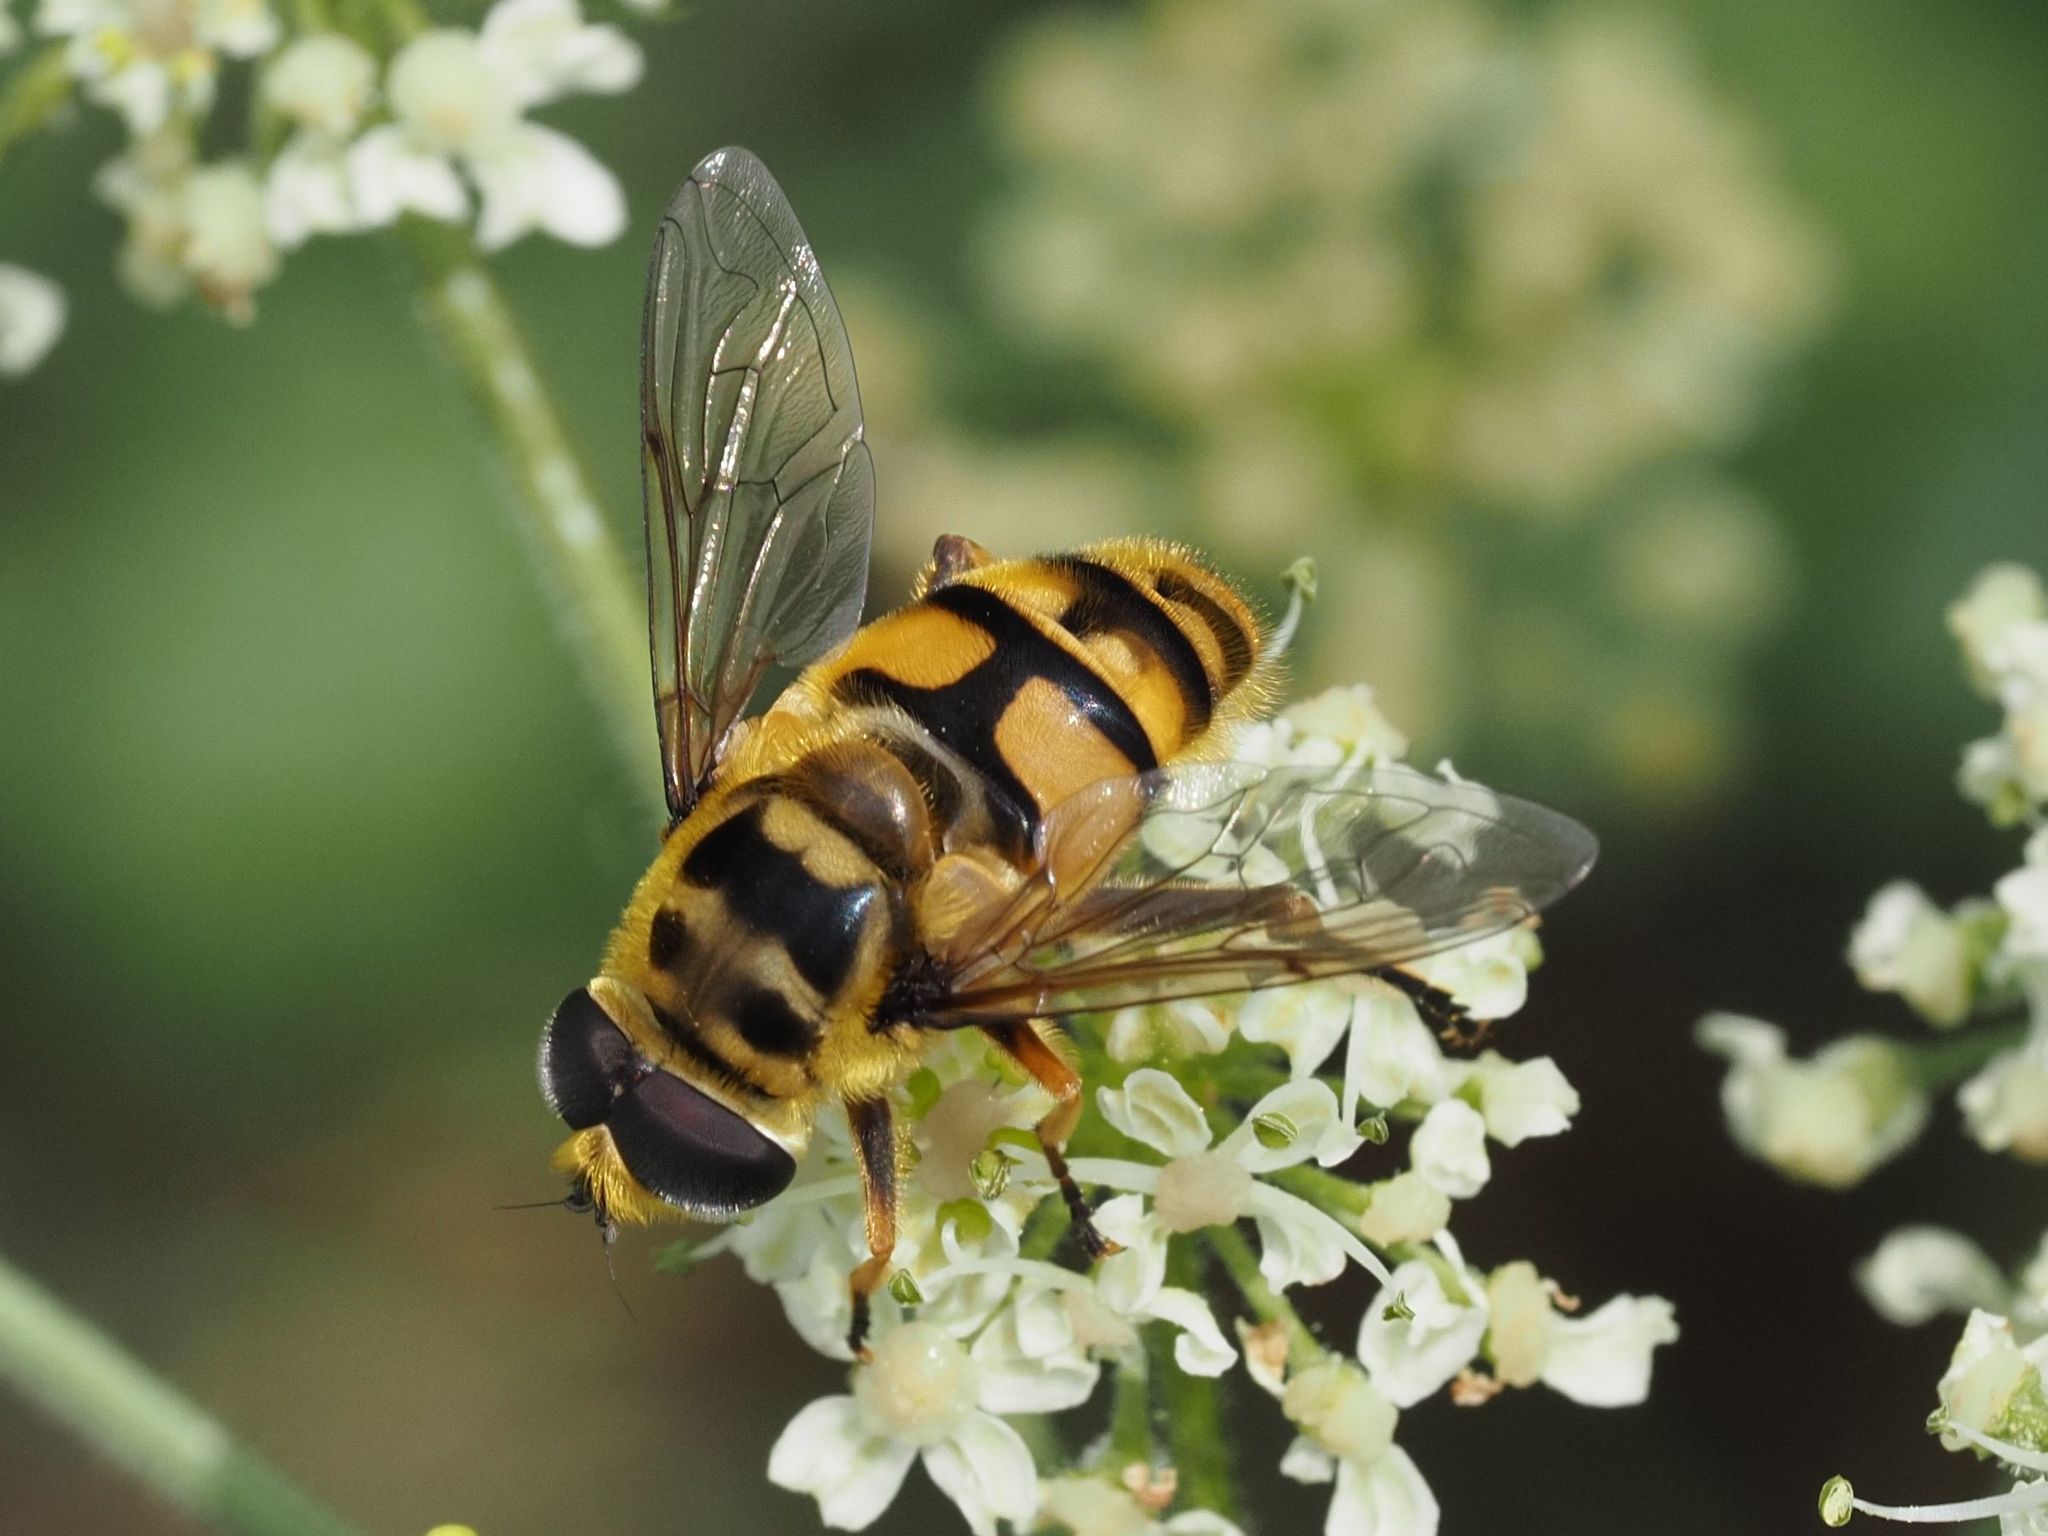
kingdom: Animalia
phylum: Arthropoda
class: Insecta
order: Diptera
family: Syrphidae
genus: Myathropa
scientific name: Myathropa florea
